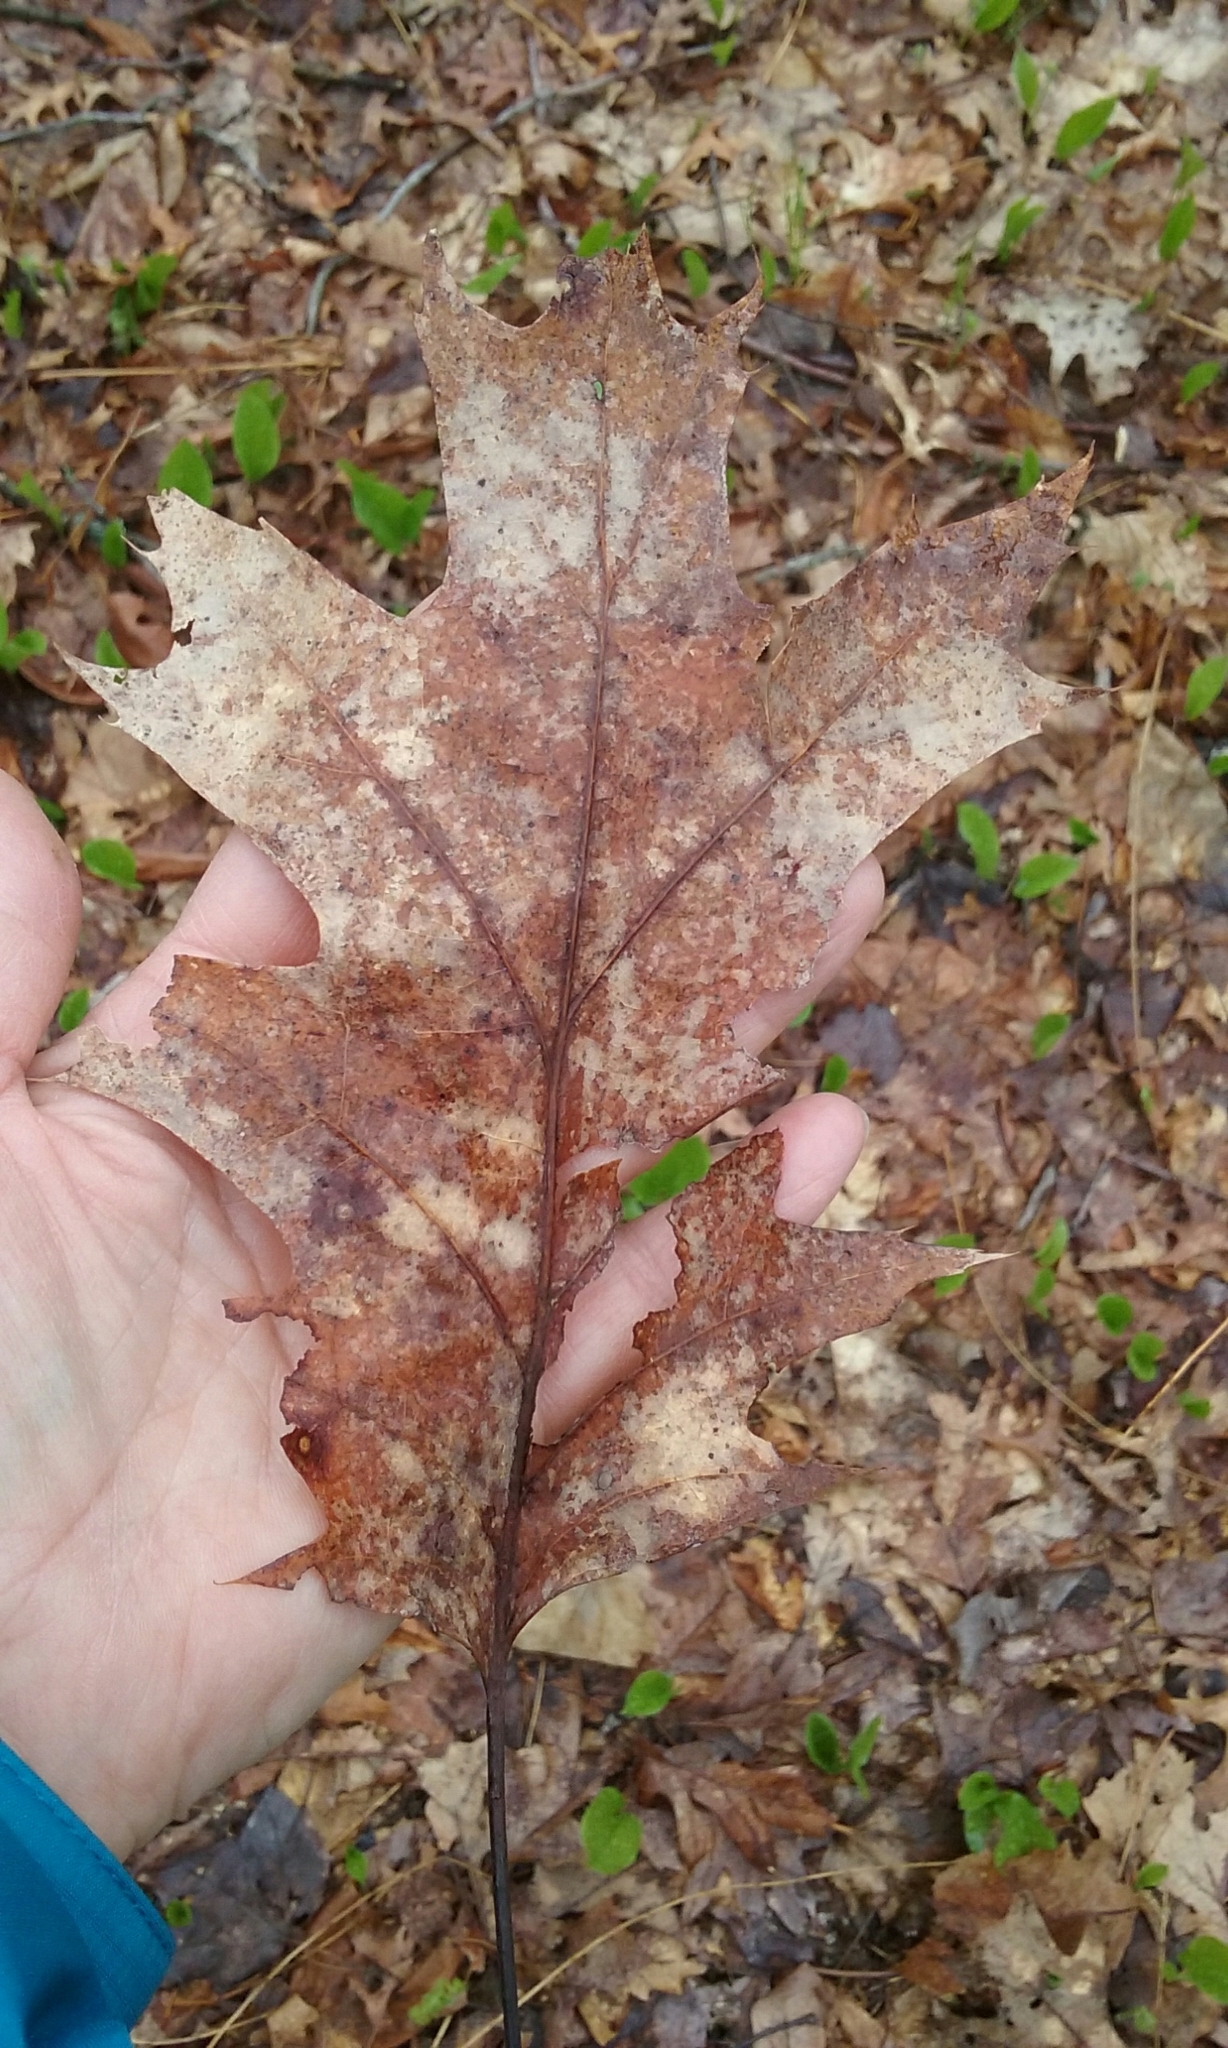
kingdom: Plantae
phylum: Tracheophyta
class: Magnoliopsida
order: Fagales
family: Fagaceae
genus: Quercus
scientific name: Quercus rubra
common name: Red oak
